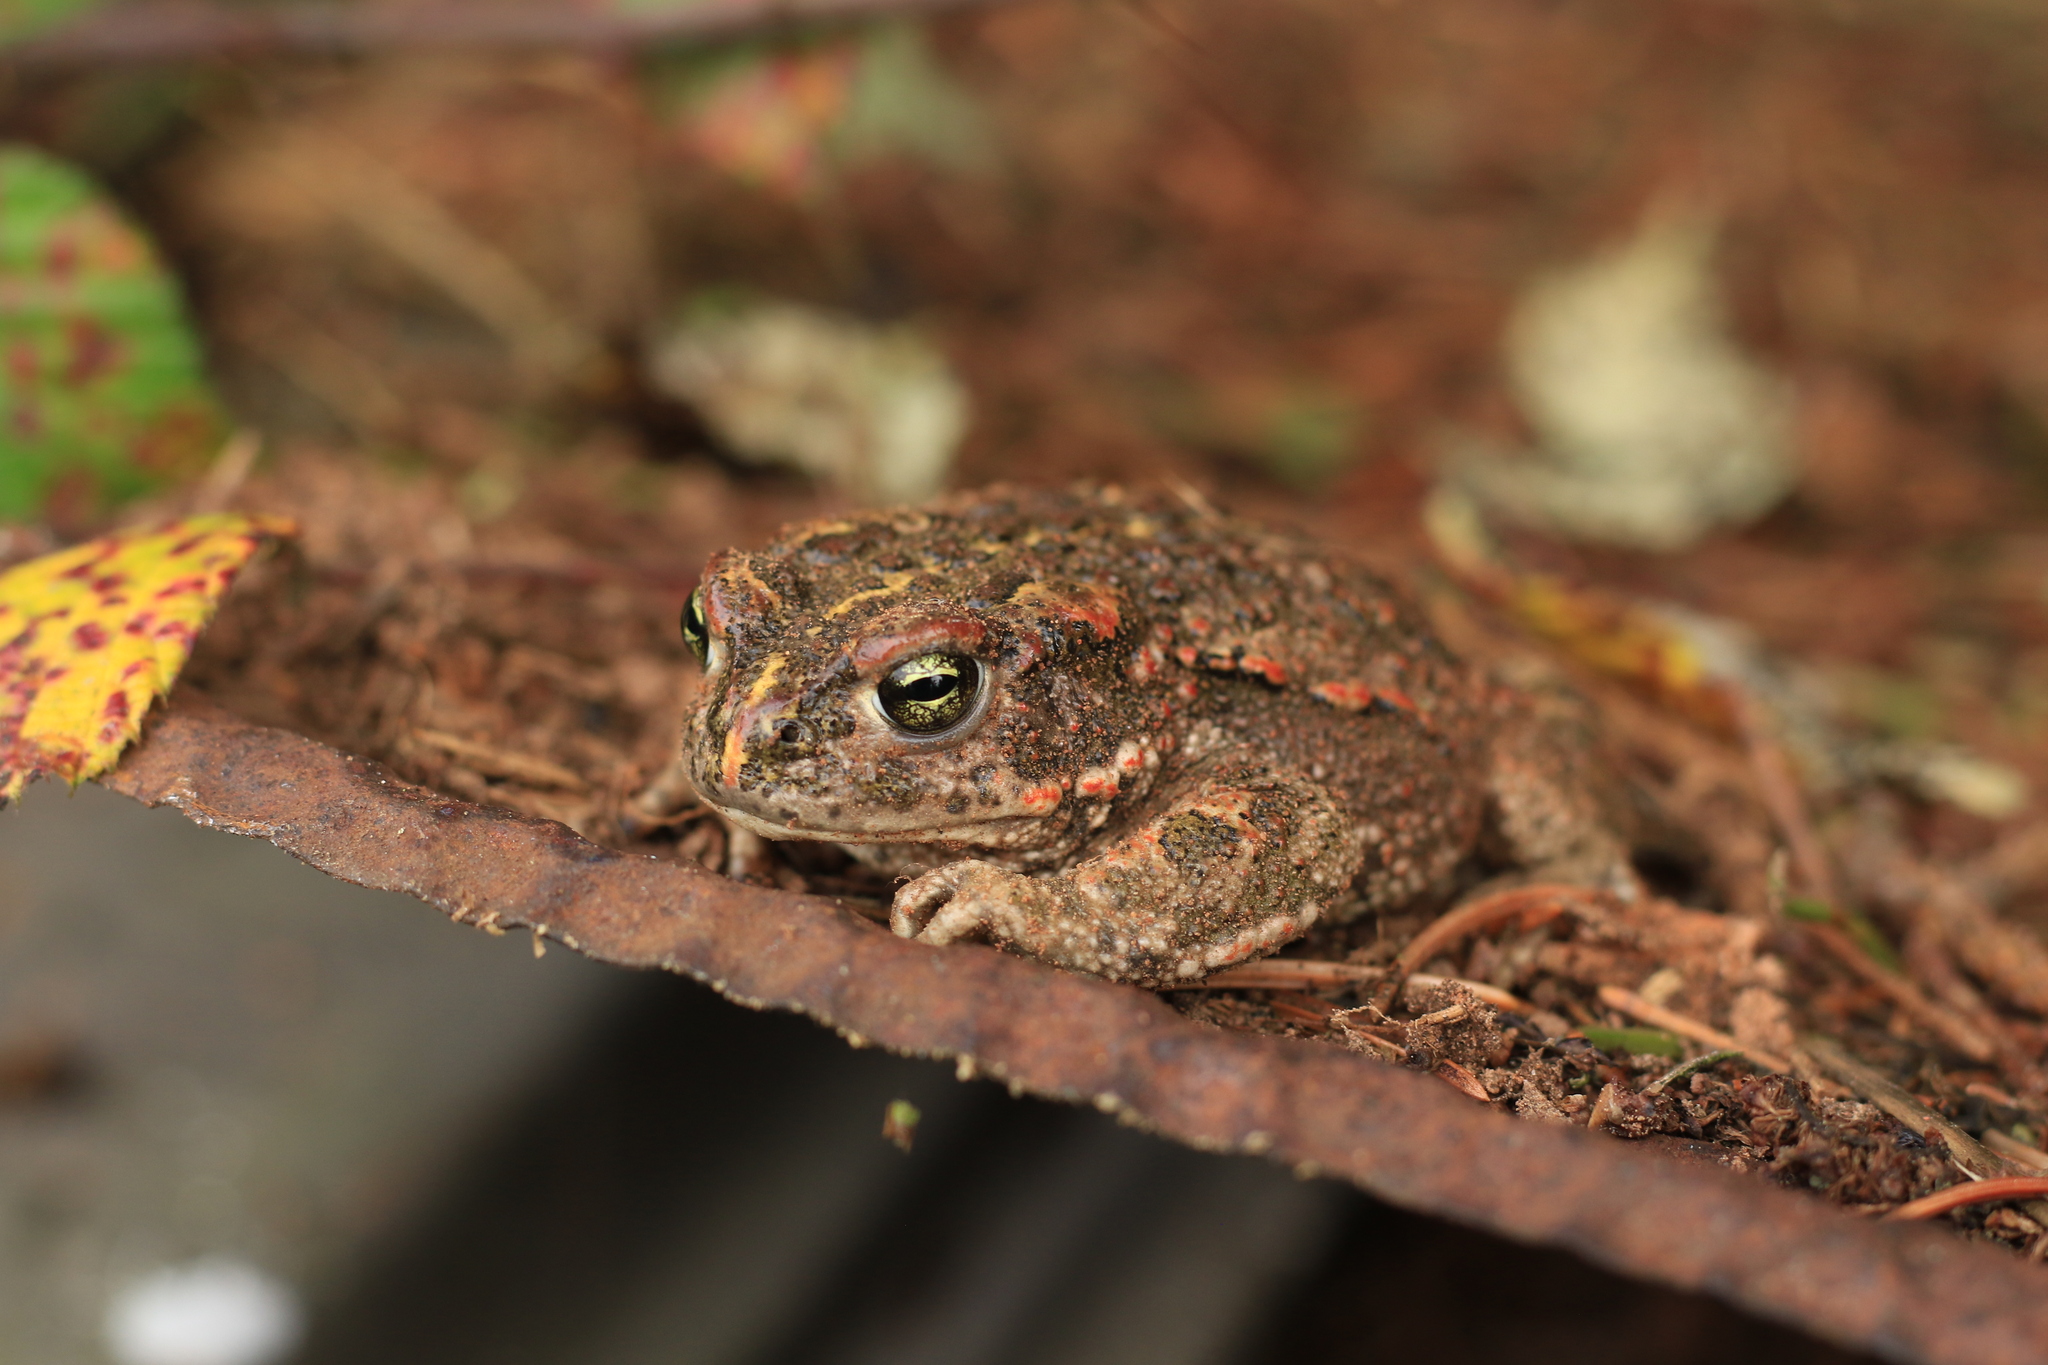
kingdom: Animalia
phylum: Chordata
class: Amphibia
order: Anura
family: Bufonidae
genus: Epidalea
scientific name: Epidalea calamita
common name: Natterjack toad
